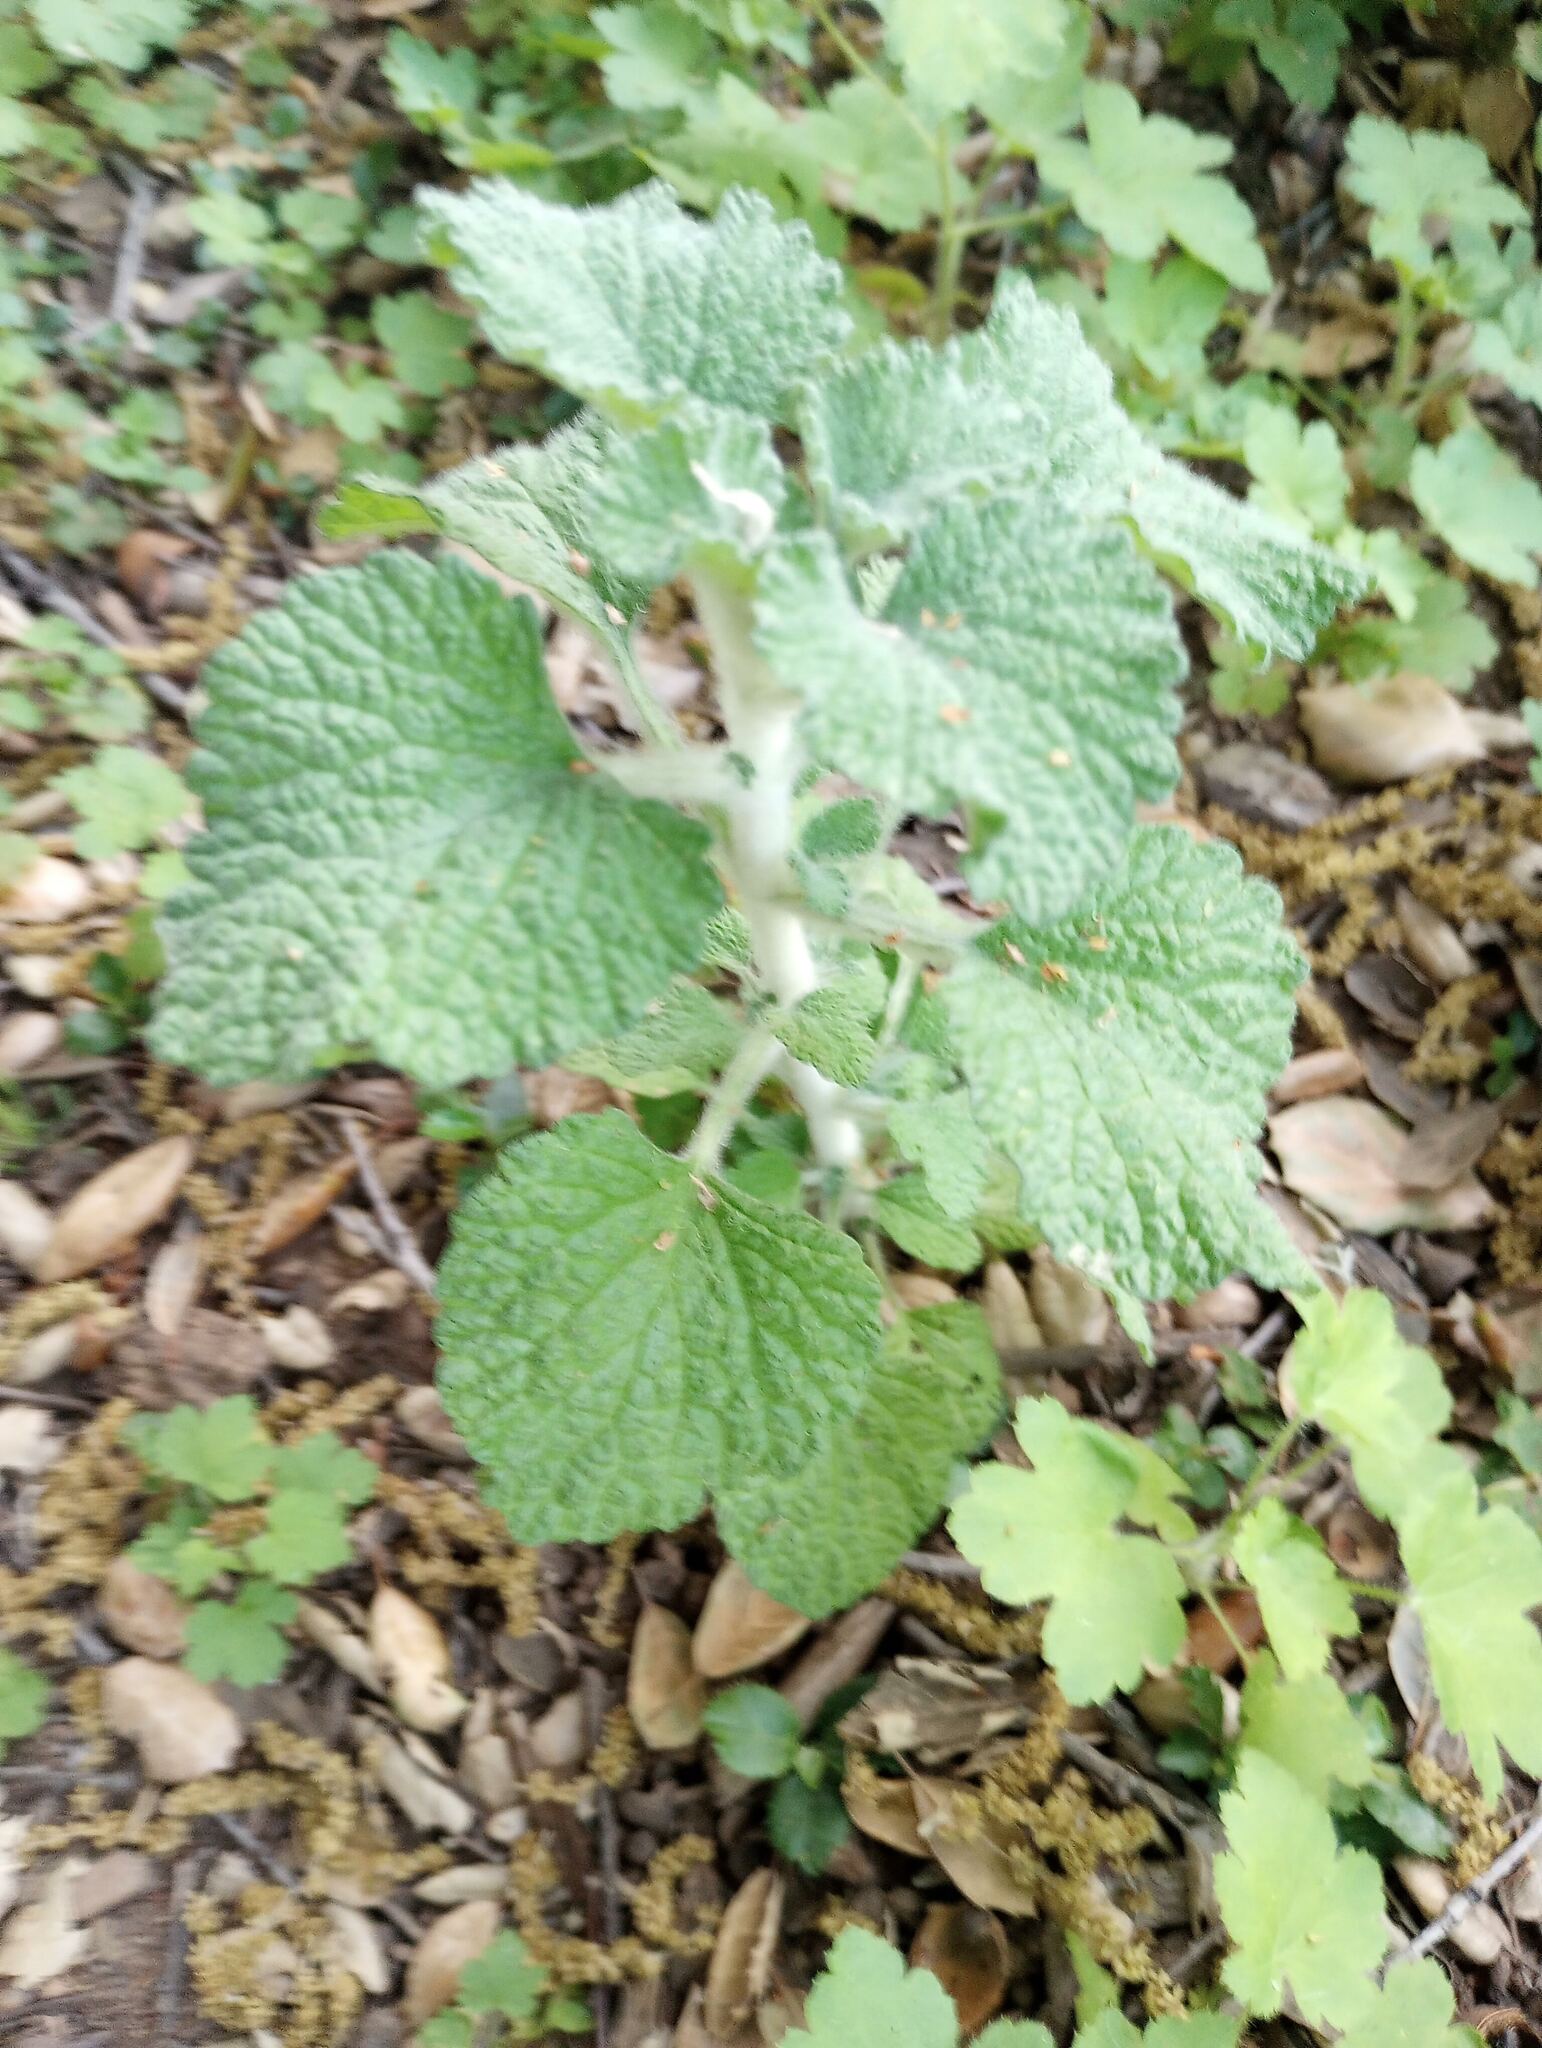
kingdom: Plantae
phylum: Tracheophyta
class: Magnoliopsida
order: Lamiales
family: Lamiaceae
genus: Marrubium
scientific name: Marrubium vulgare
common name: Horehound
